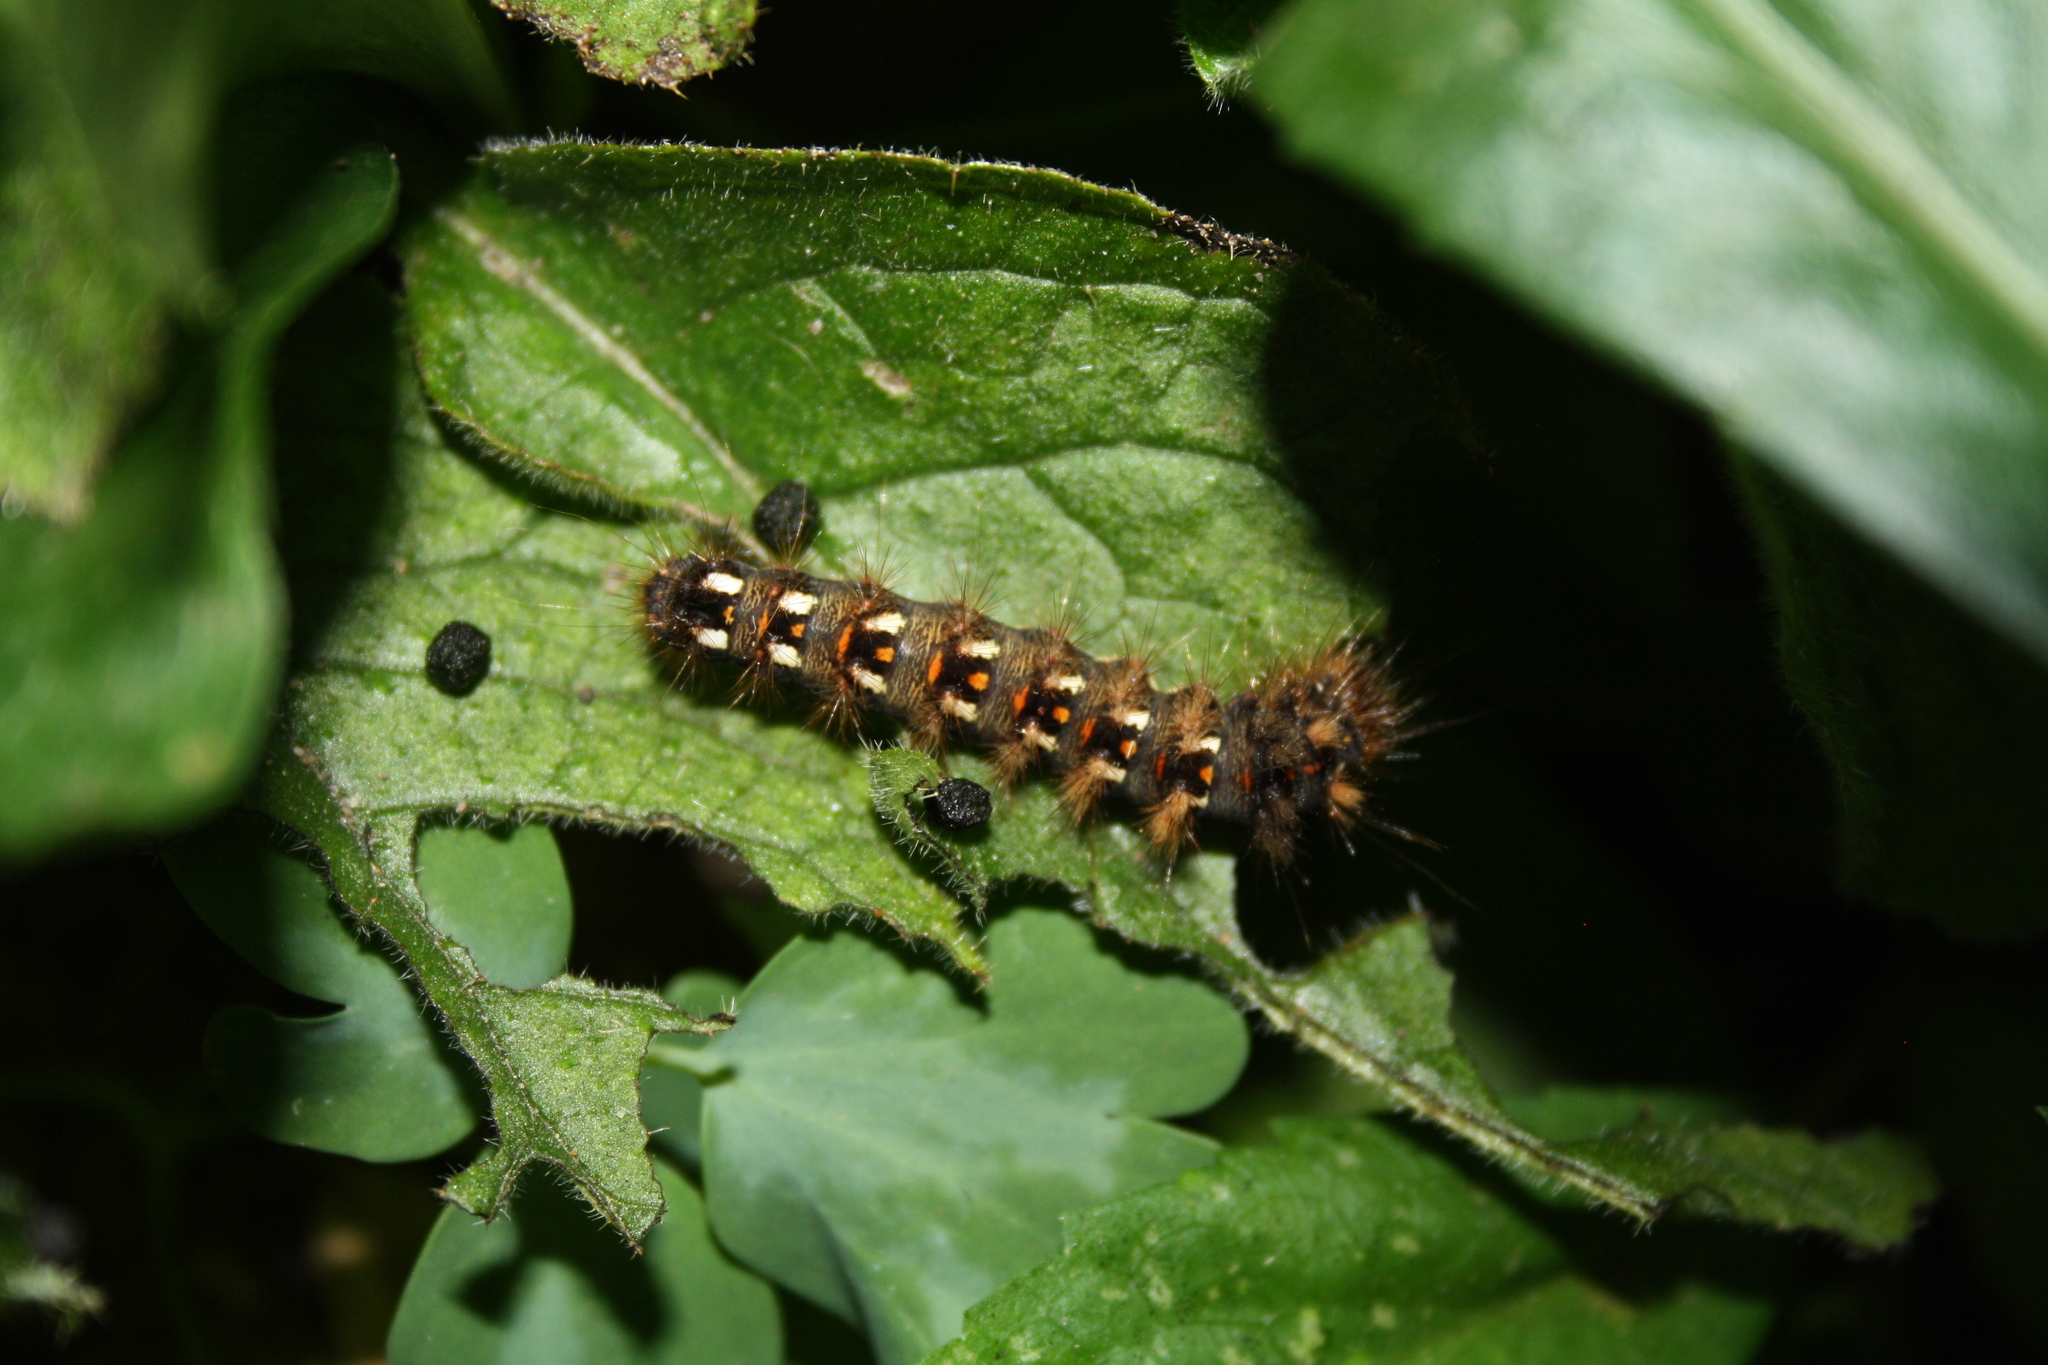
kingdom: Animalia
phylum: Arthropoda
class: Insecta
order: Lepidoptera
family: Noctuidae
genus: Acronicta
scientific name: Acronicta rumicis
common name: Knot grass
